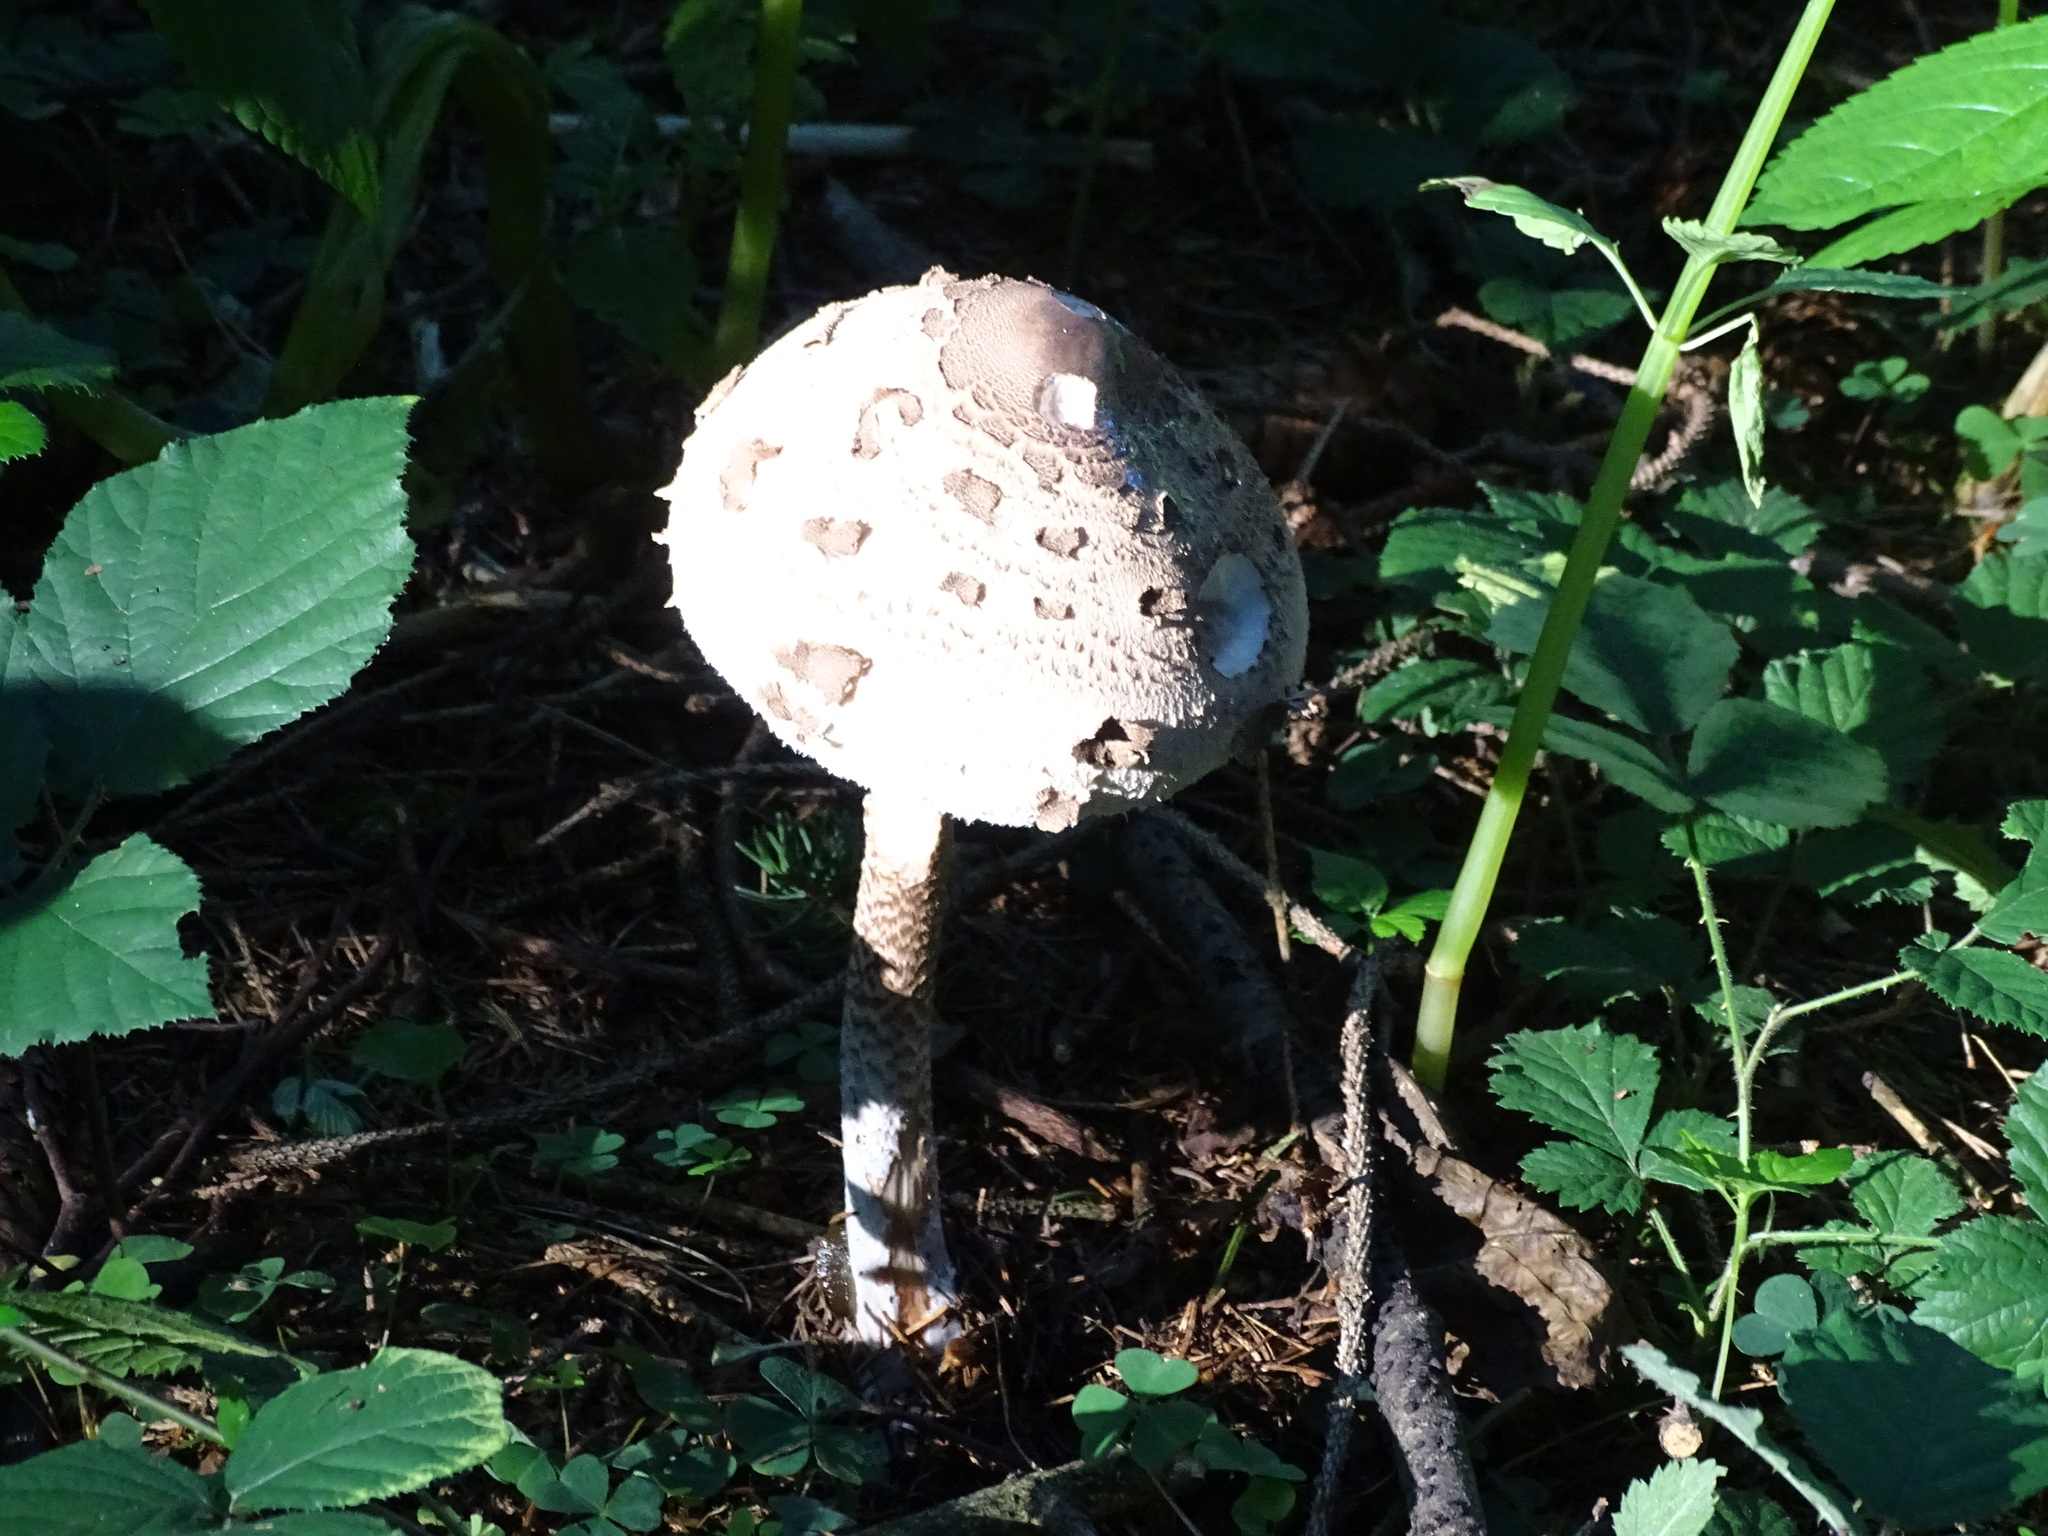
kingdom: Fungi
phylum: Basidiomycota
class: Agaricomycetes
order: Agaricales
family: Agaricaceae
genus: Macrolepiota
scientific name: Macrolepiota procera
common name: Parasol
